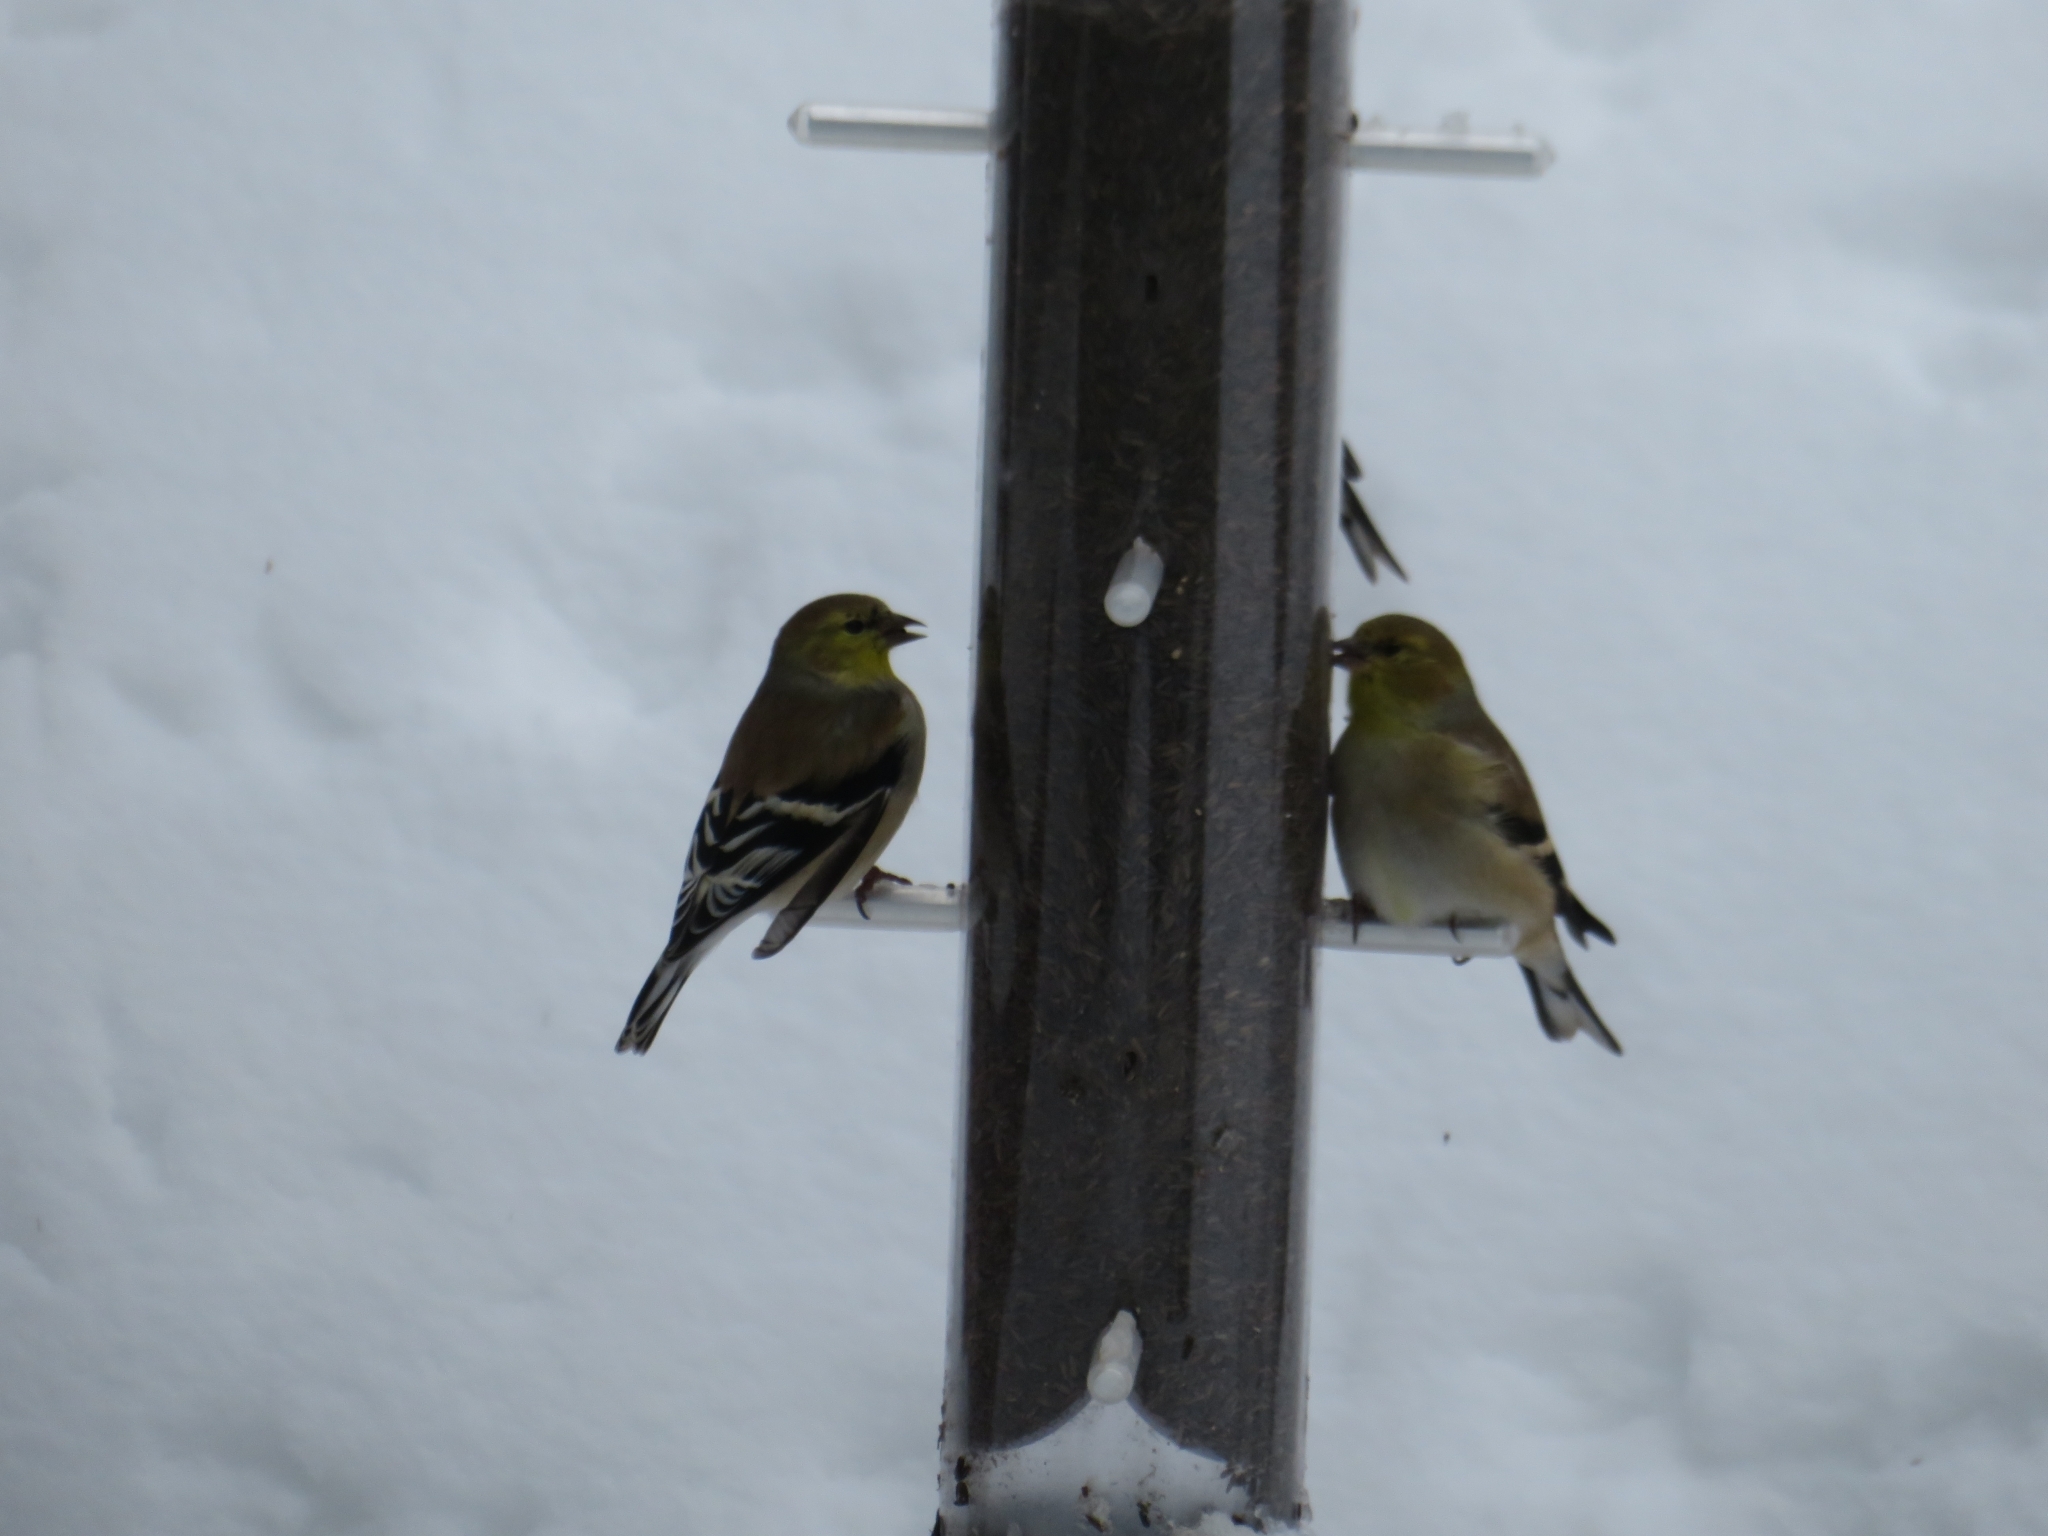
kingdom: Animalia
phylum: Chordata
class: Aves
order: Passeriformes
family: Fringillidae
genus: Spinus
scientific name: Spinus tristis
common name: American goldfinch
